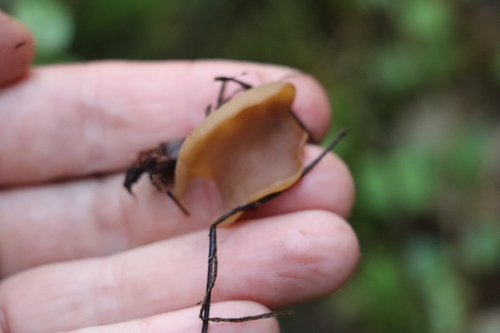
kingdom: Fungi
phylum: Ascomycota
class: Pezizomycetes
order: Pezizales
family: Otideaceae
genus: Otidea
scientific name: Otidea
